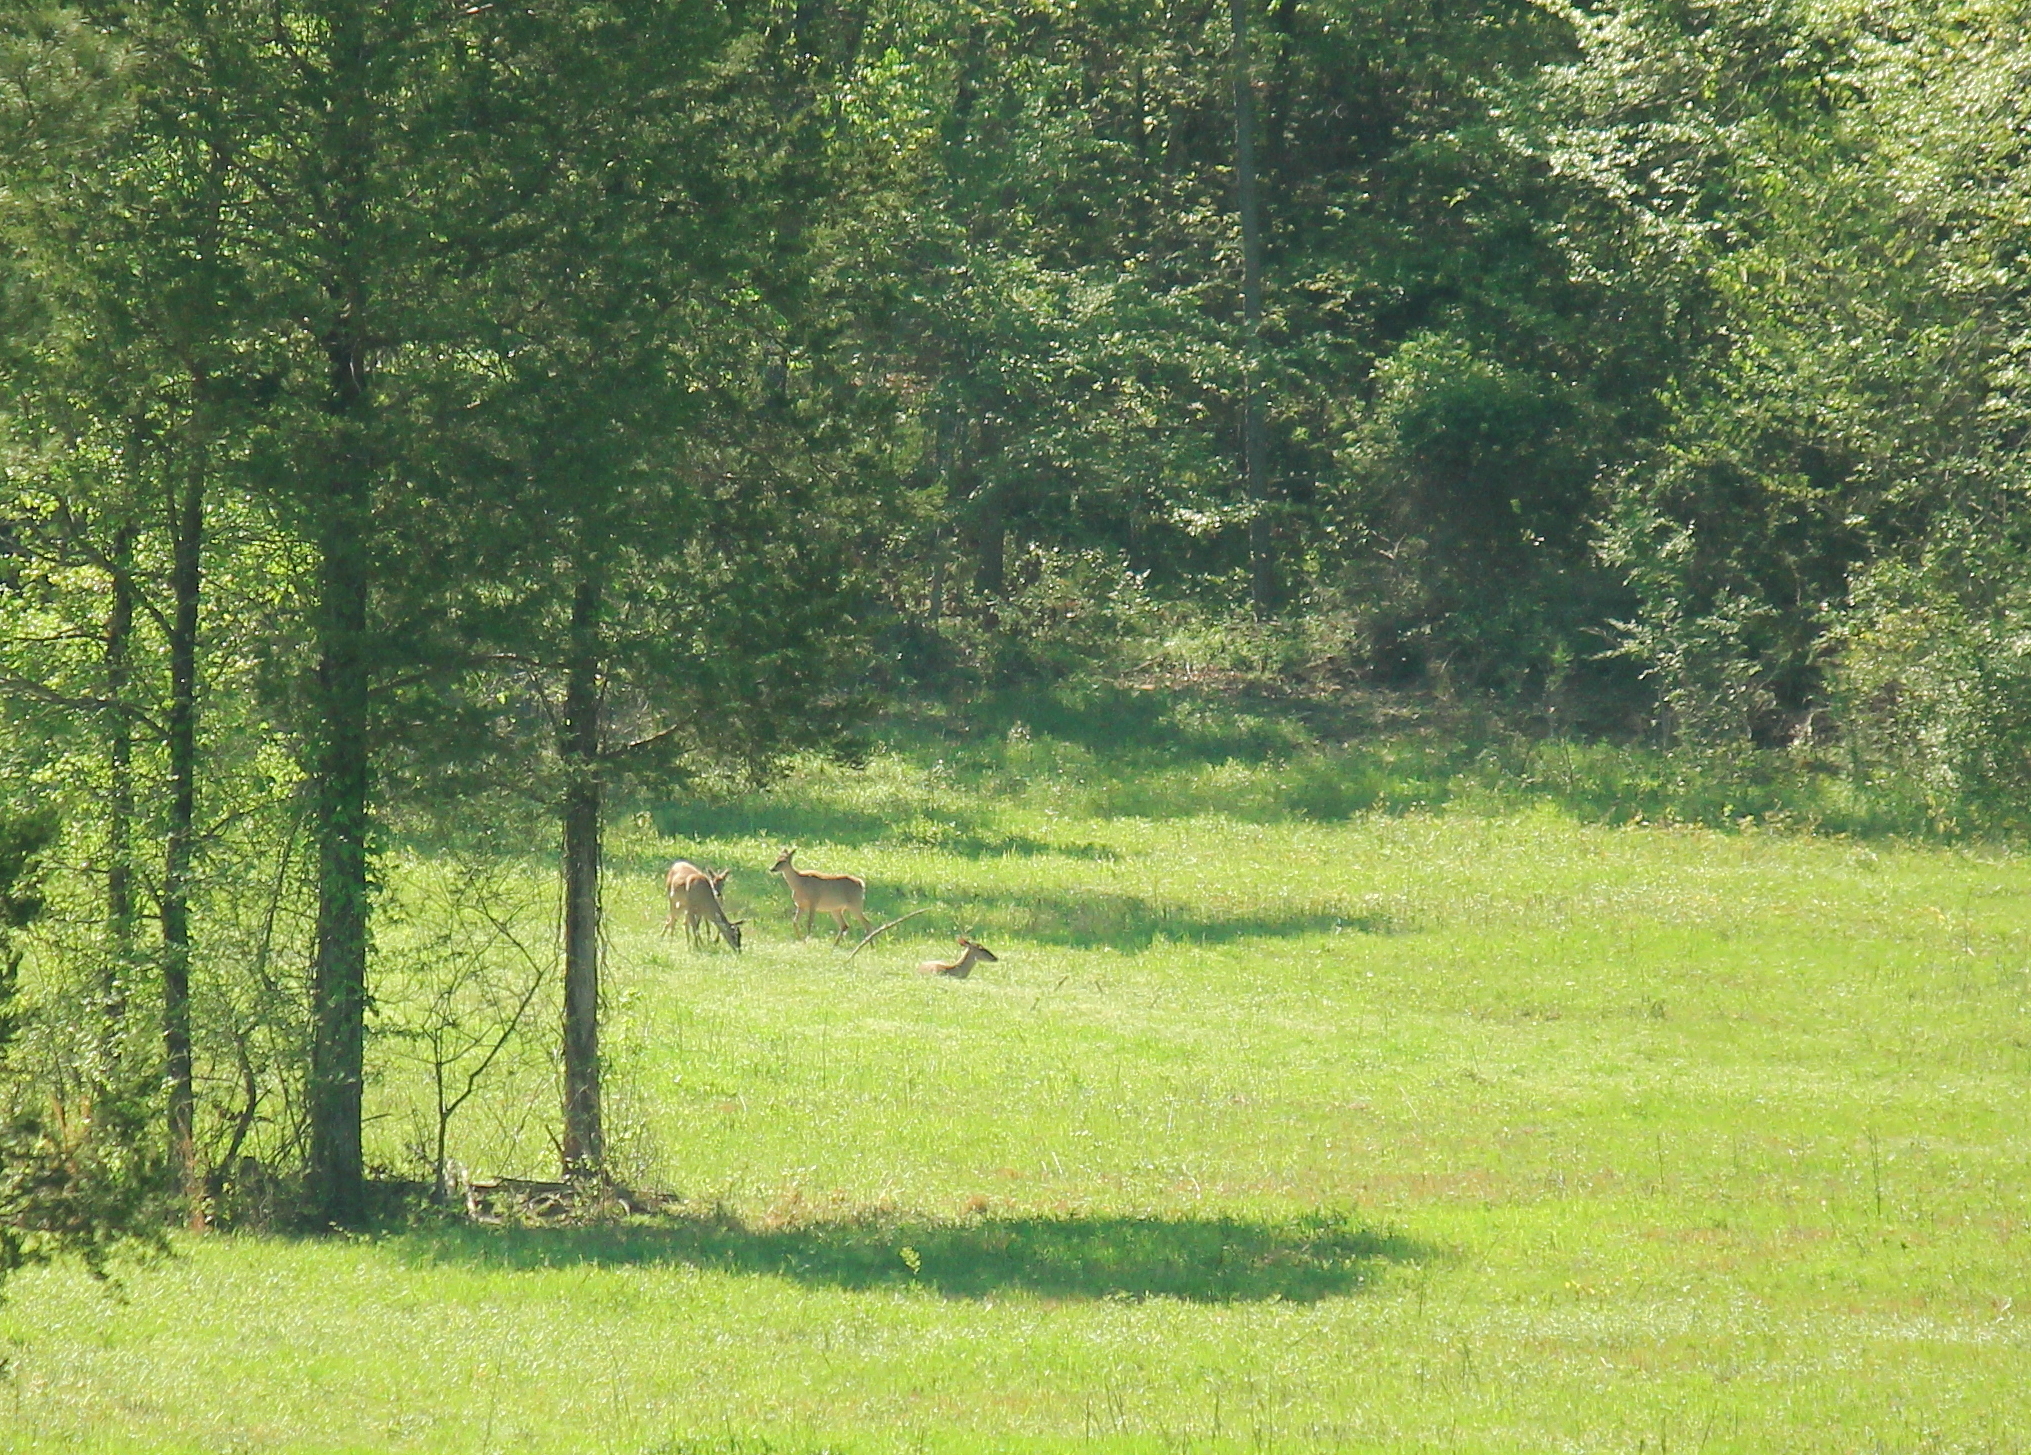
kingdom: Animalia
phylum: Chordata
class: Mammalia
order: Artiodactyla
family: Cervidae
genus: Odocoileus
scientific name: Odocoileus virginianus
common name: White-tailed deer
